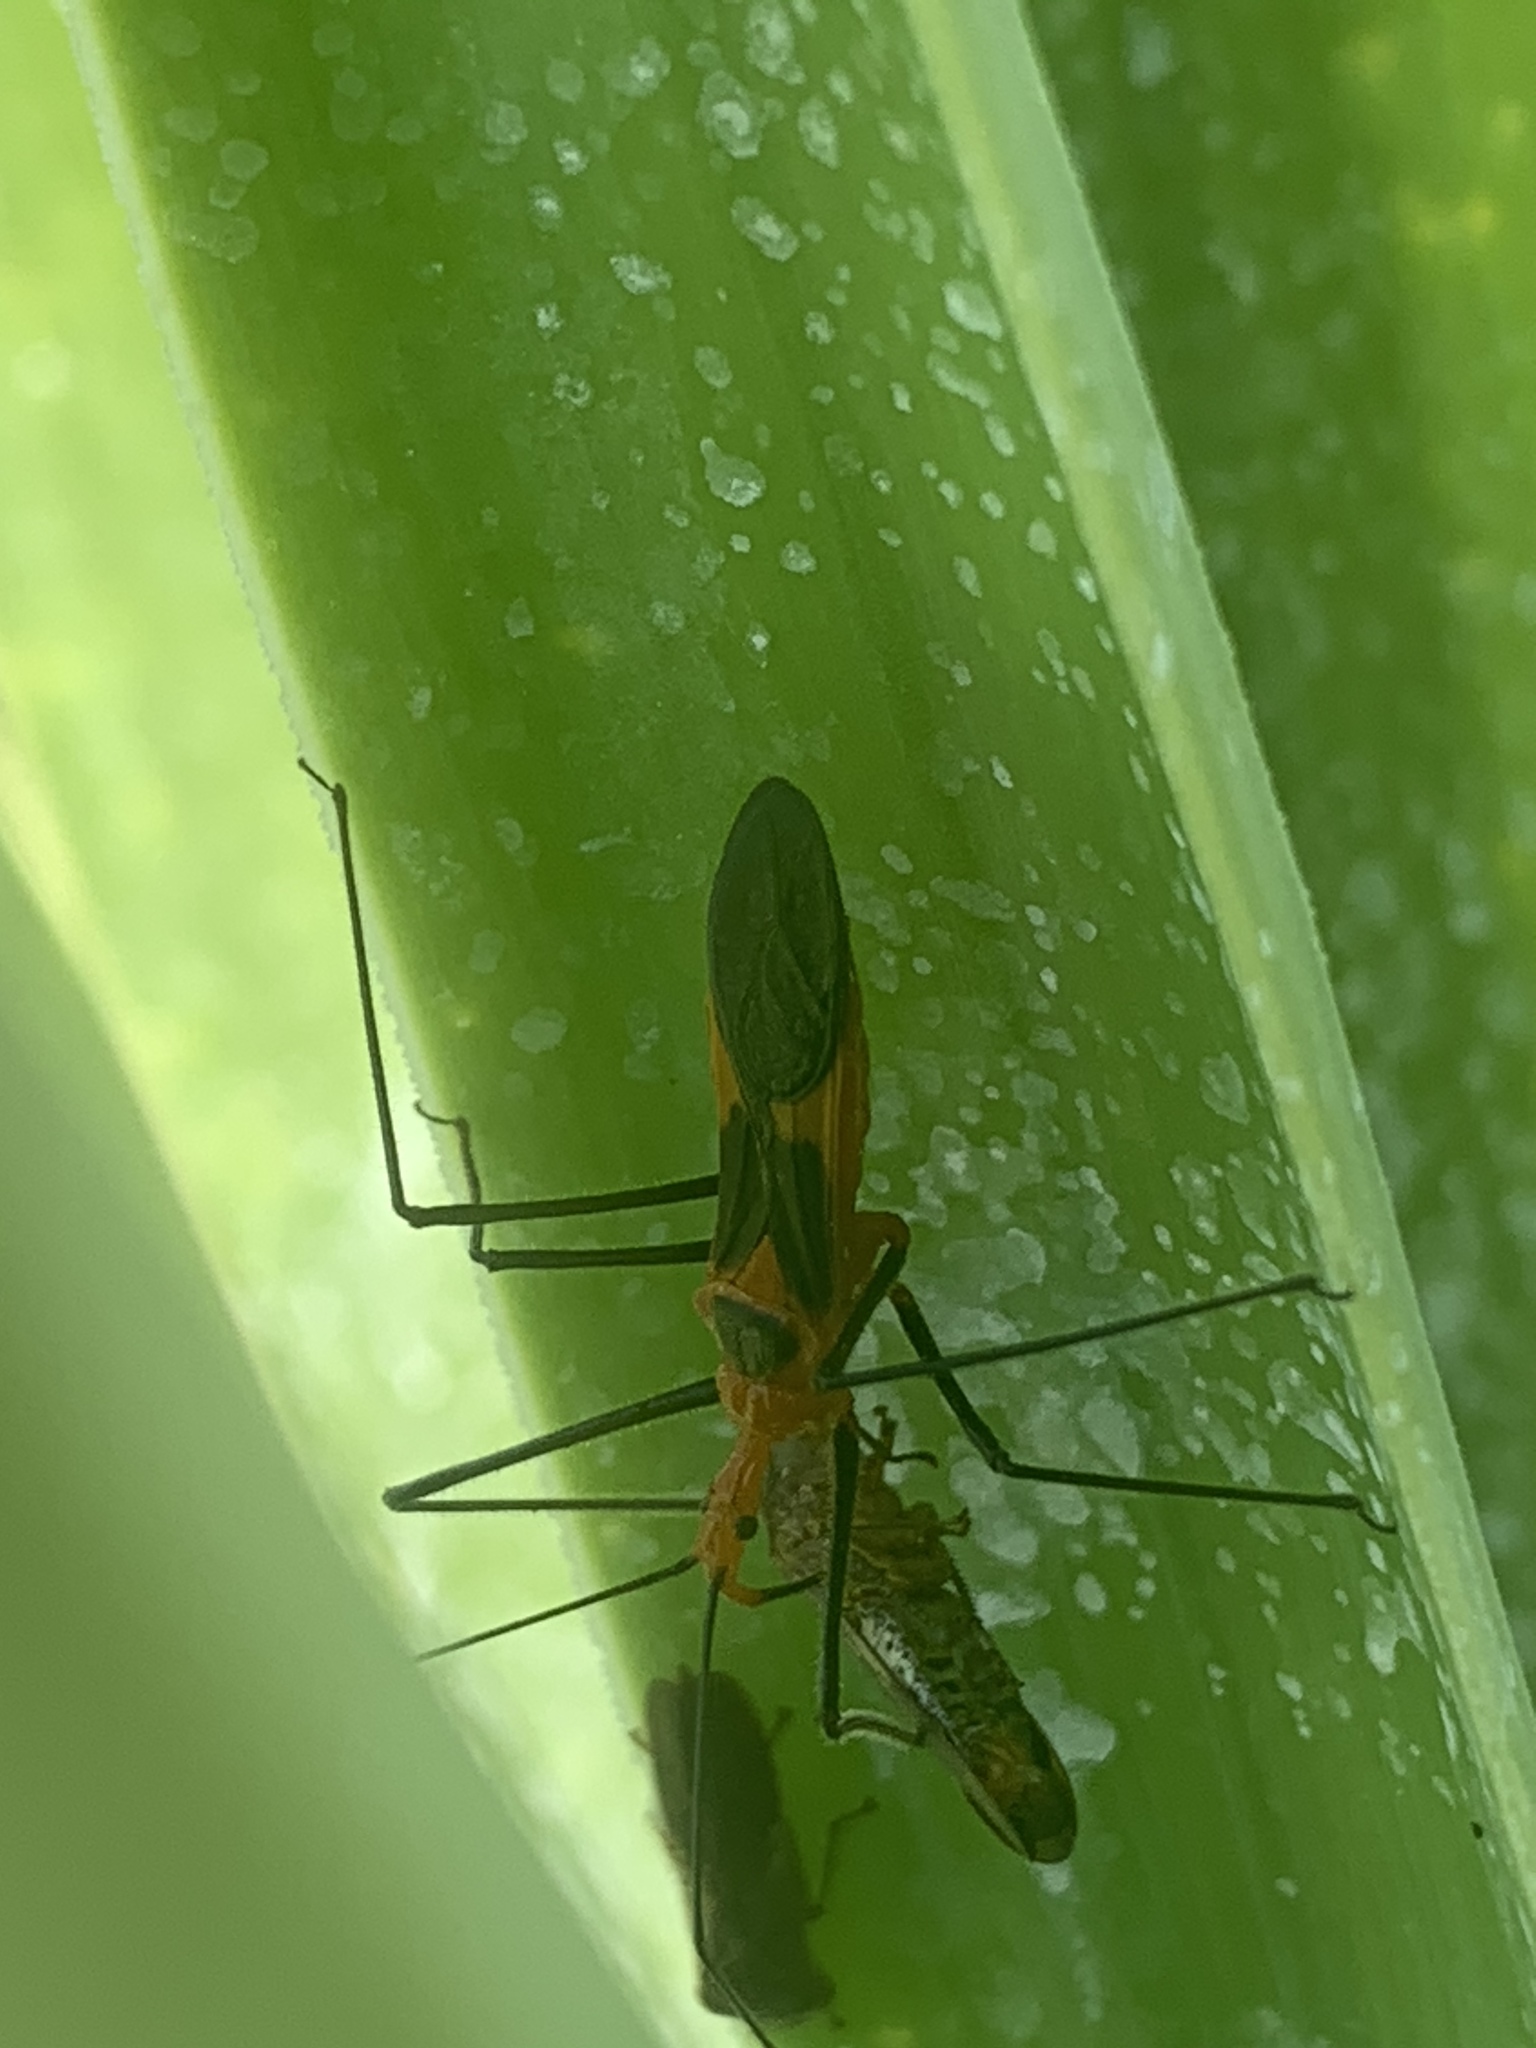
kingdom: Animalia
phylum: Arthropoda
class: Insecta
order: Hemiptera
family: Reduviidae
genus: Zelus
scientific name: Zelus longipes
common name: Milkweed assassin bug
